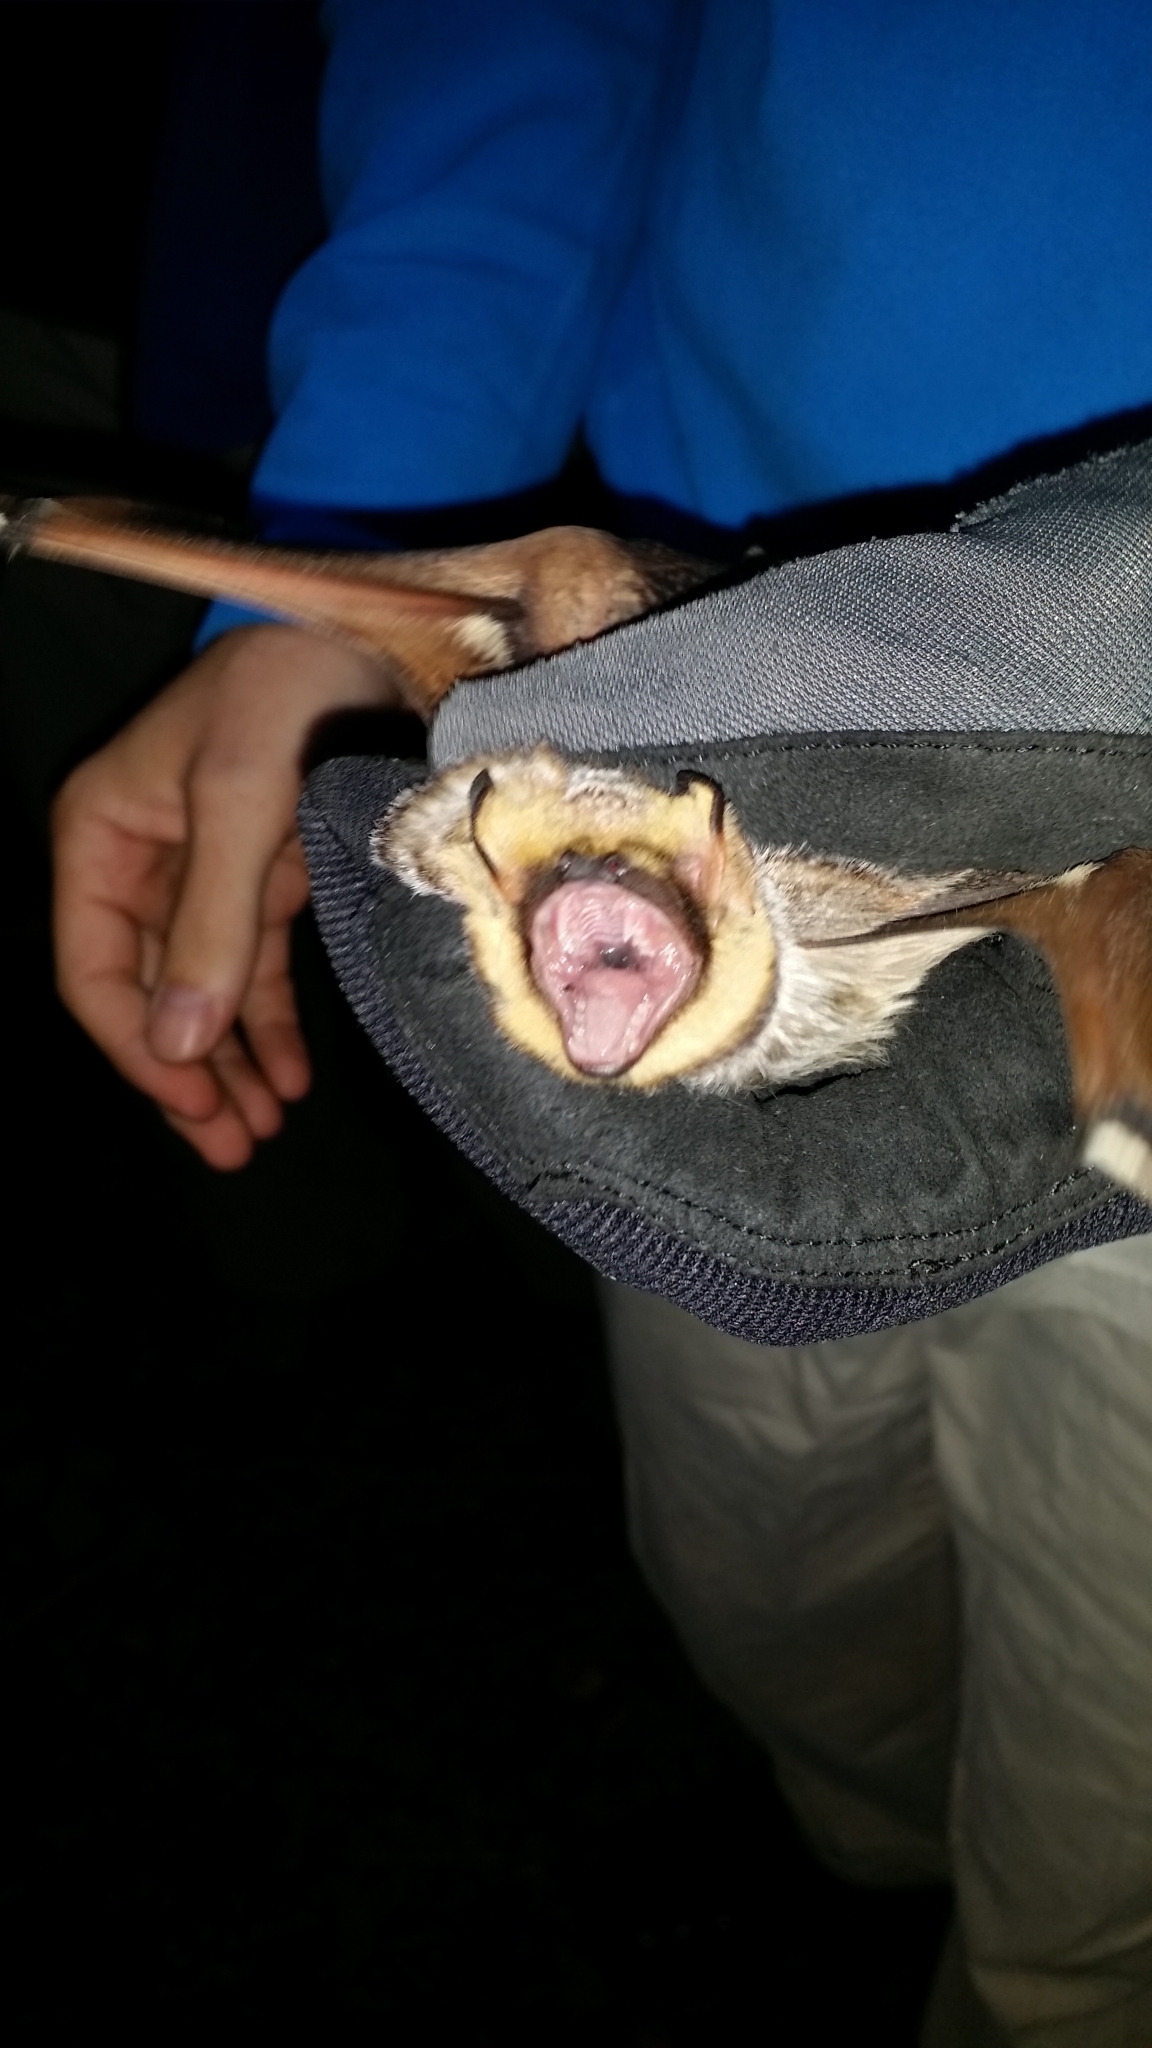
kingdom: Animalia
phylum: Chordata
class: Mammalia
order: Chiroptera
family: Vespertilionidae
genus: Aeorestes
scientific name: Aeorestes cinereus
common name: North american hoary bat
